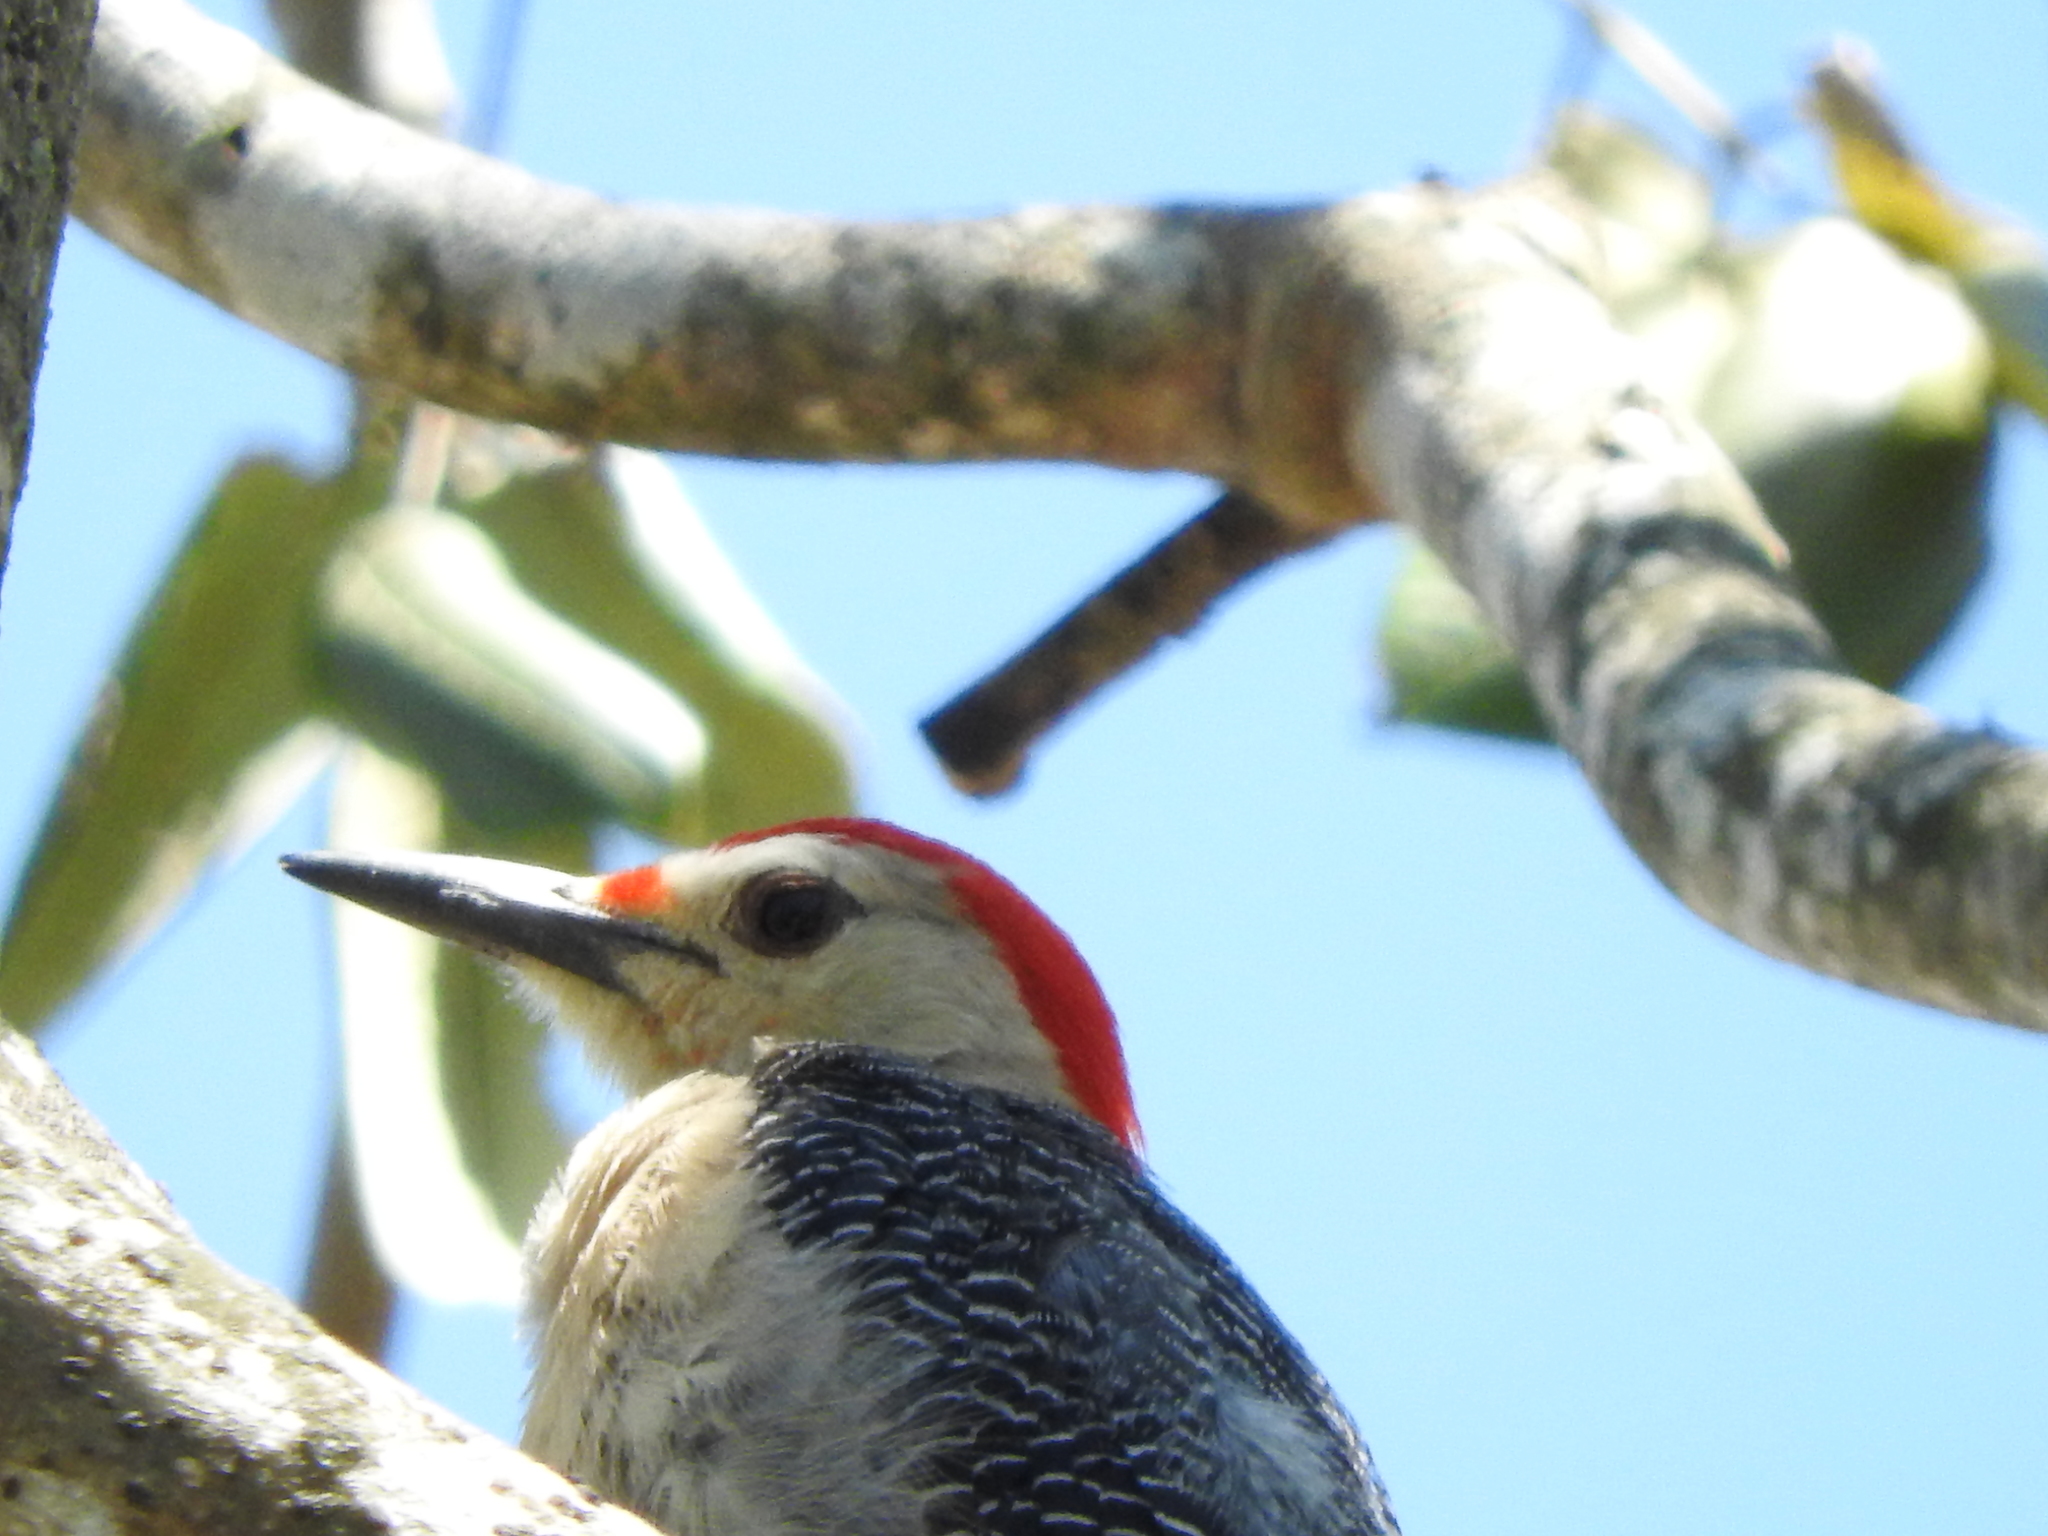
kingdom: Animalia
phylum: Chordata
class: Aves
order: Piciformes
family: Picidae
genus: Melanerpes
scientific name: Melanerpes santacruzi
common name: Velasquez's woodpecker
